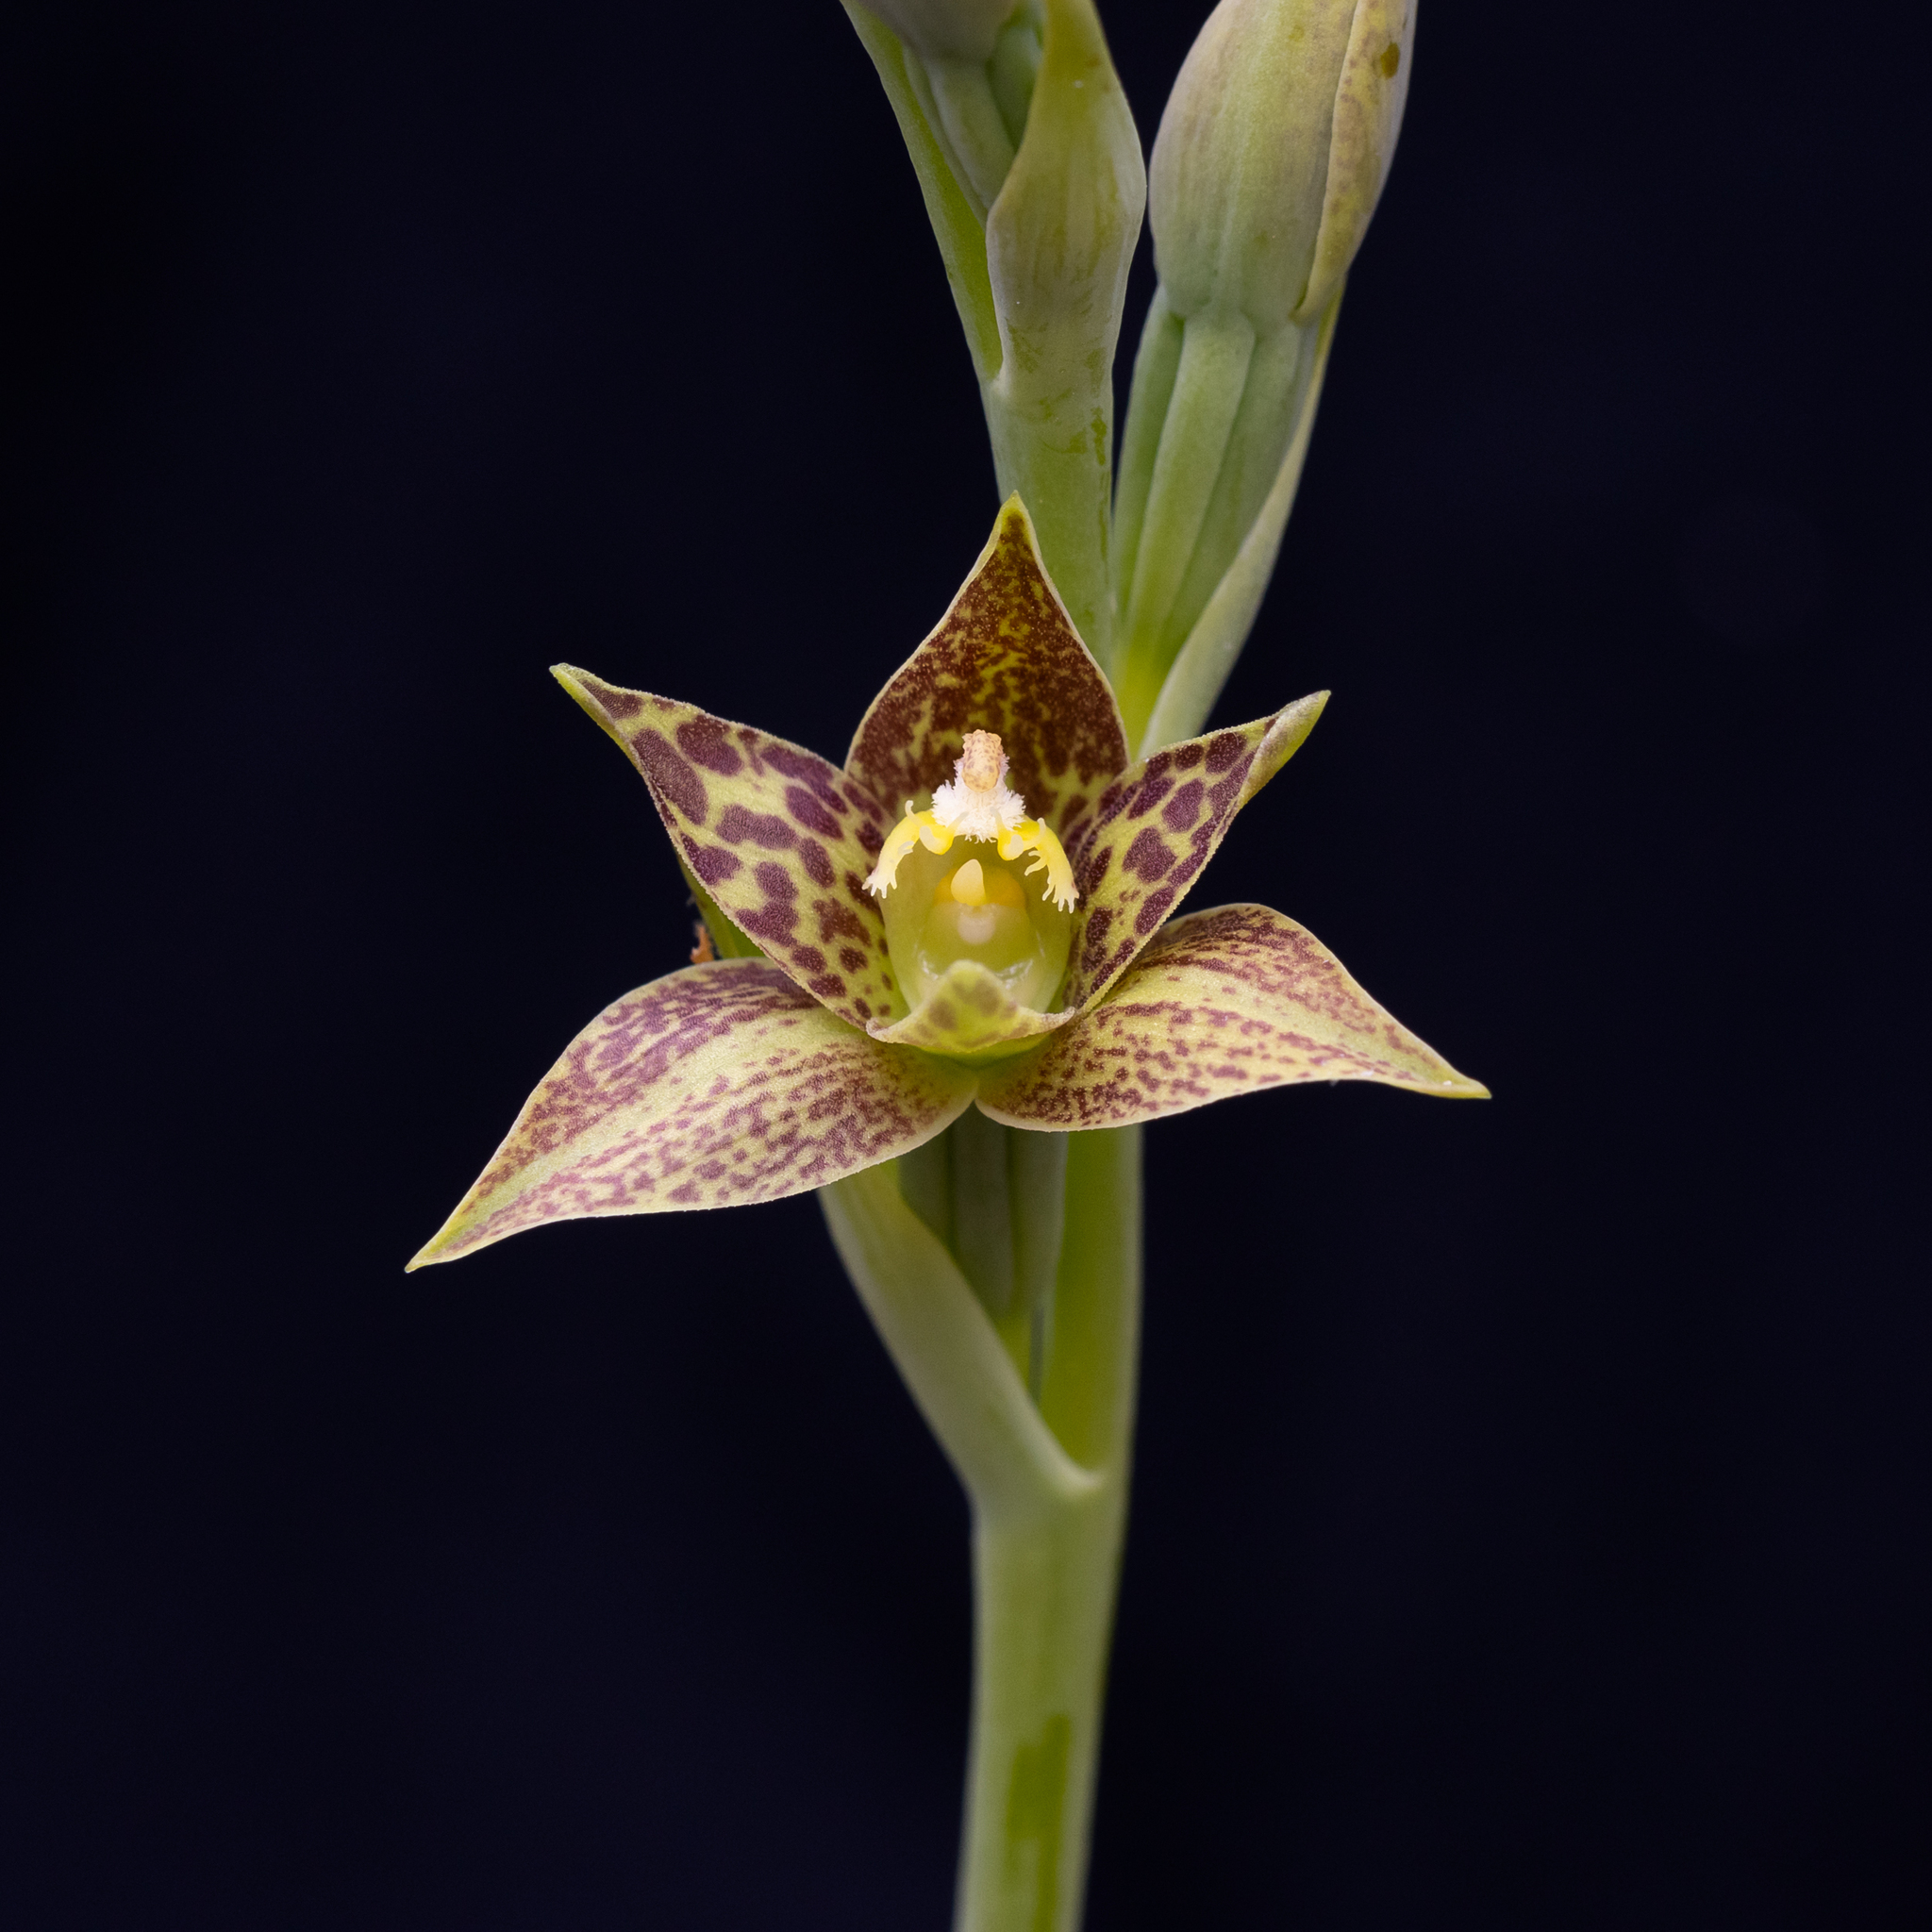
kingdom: Plantae
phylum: Tracheophyta
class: Liliopsida
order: Asparagales
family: Orchidaceae
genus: Thelymitra
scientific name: Thelymitra benthamiana
